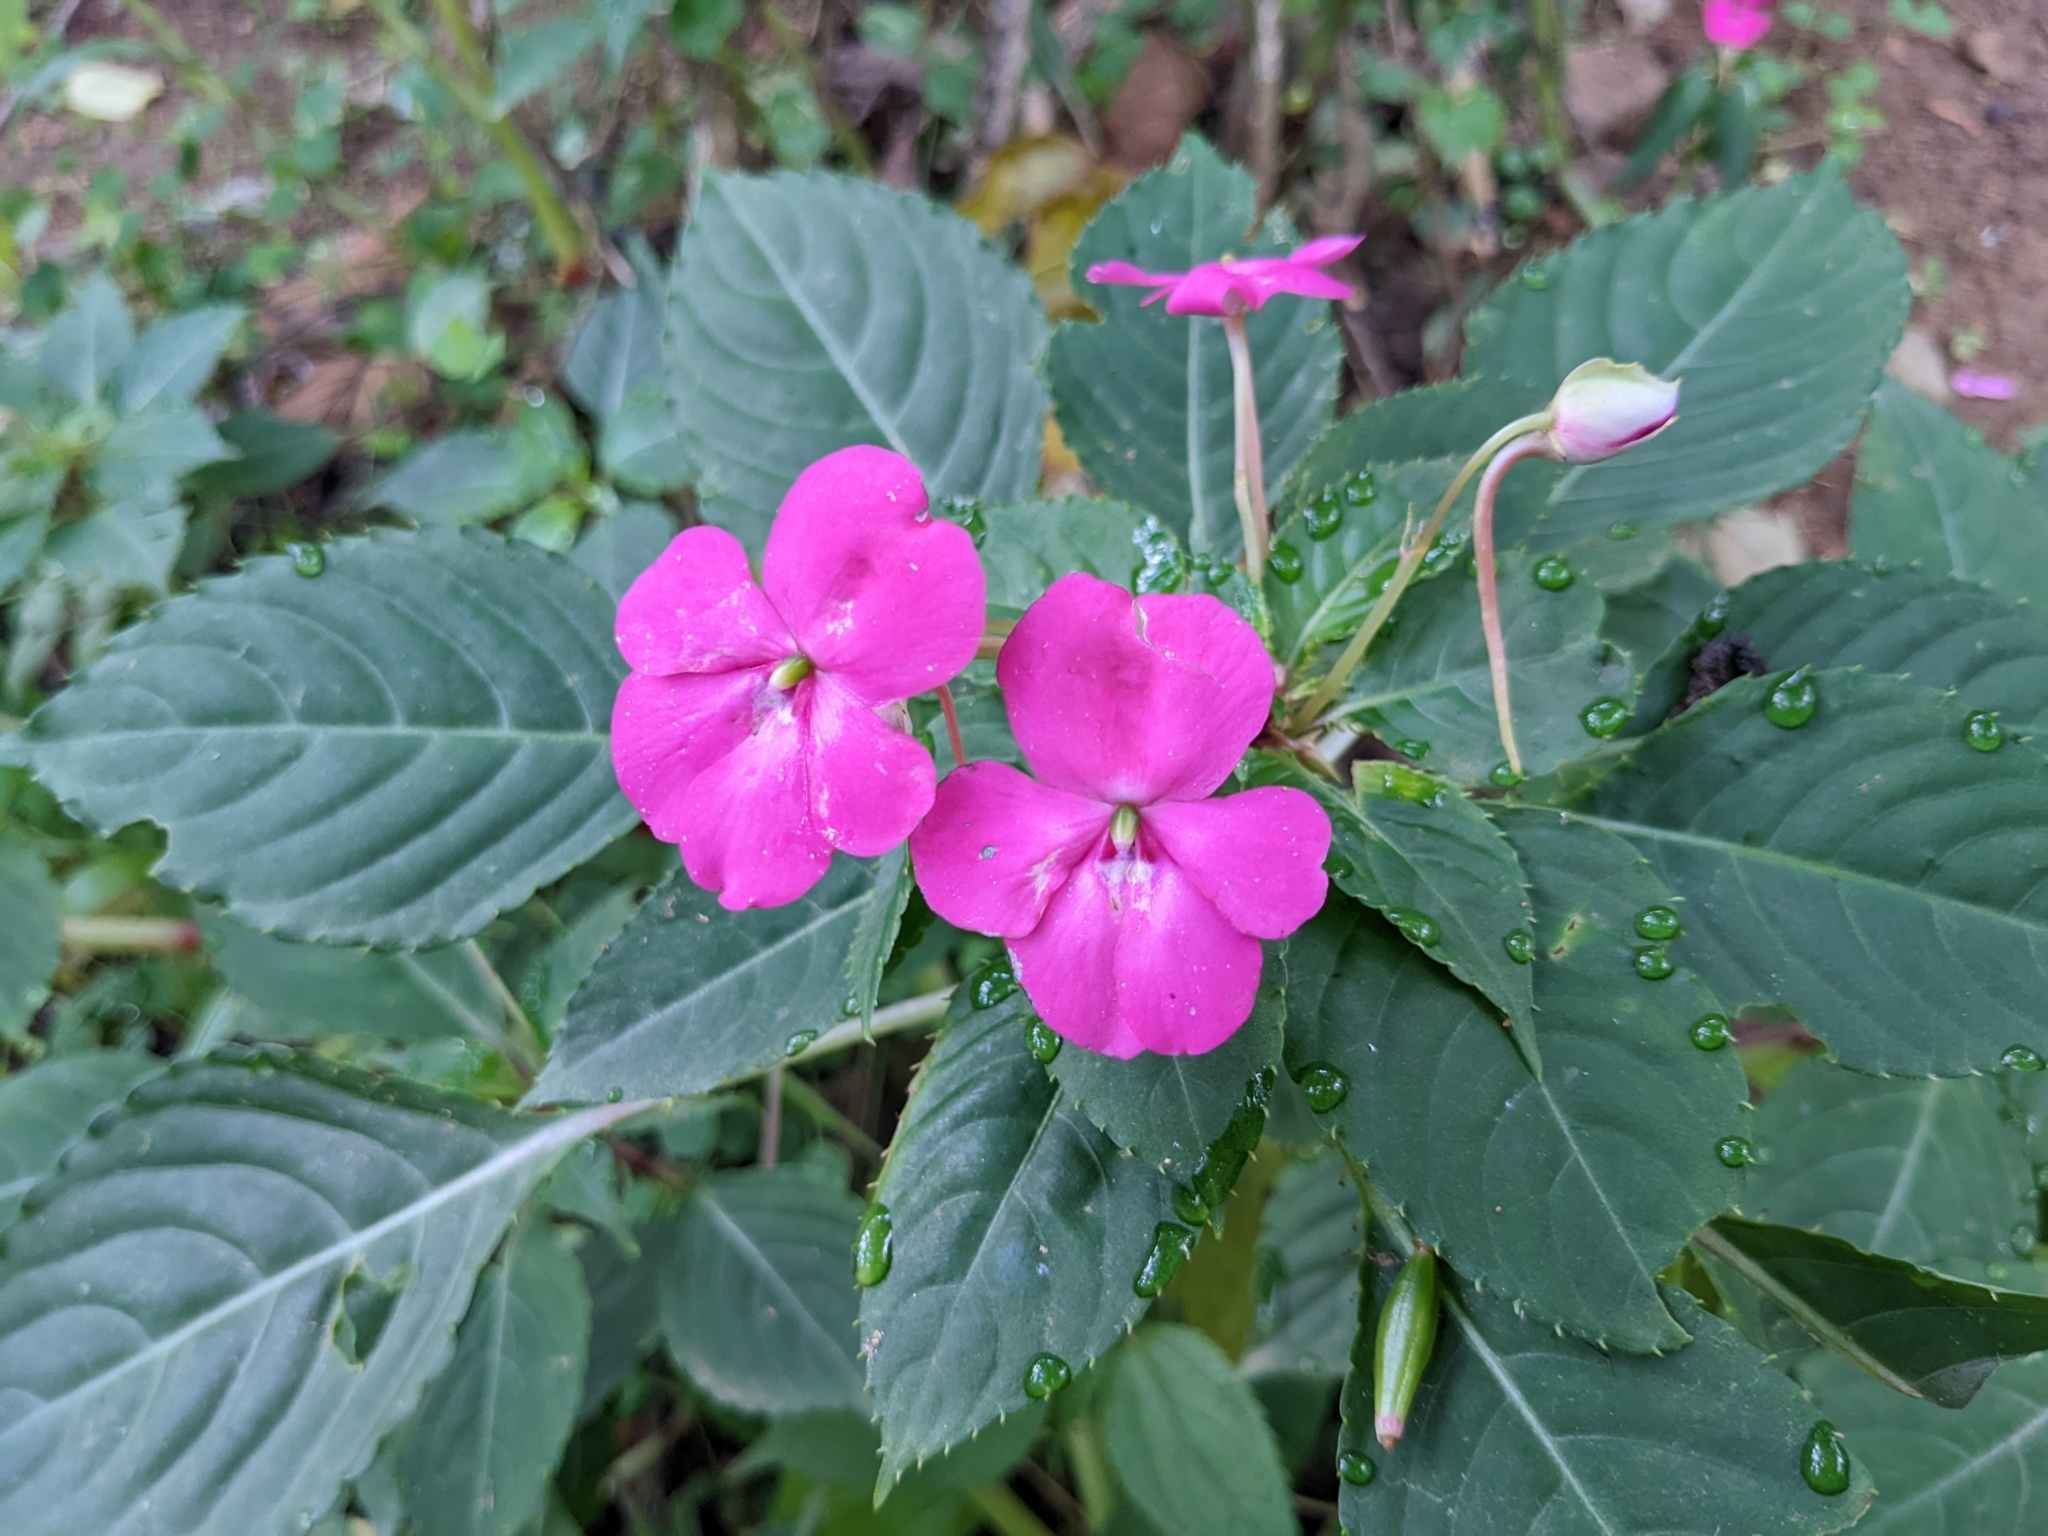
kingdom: Plantae
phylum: Tracheophyta
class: Magnoliopsida
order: Ericales
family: Balsaminaceae
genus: Impatiens
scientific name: Impatiens walleriana
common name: Buzzy lizzy
